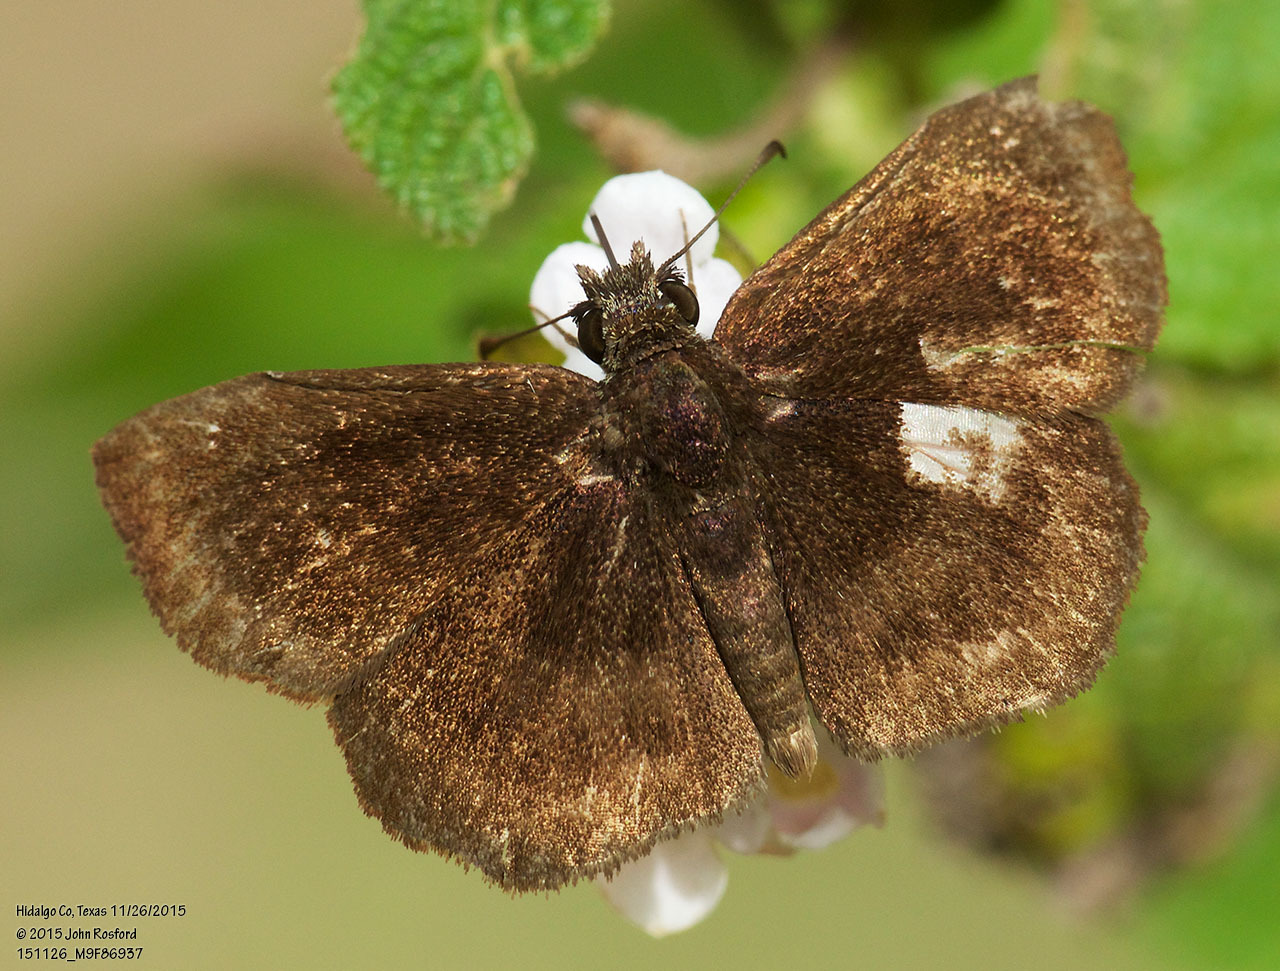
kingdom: Animalia
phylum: Arthropoda
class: Insecta
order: Lepidoptera
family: Hesperiidae
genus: Staphylus
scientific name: Staphylus mazans
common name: Mazans scallopwing
